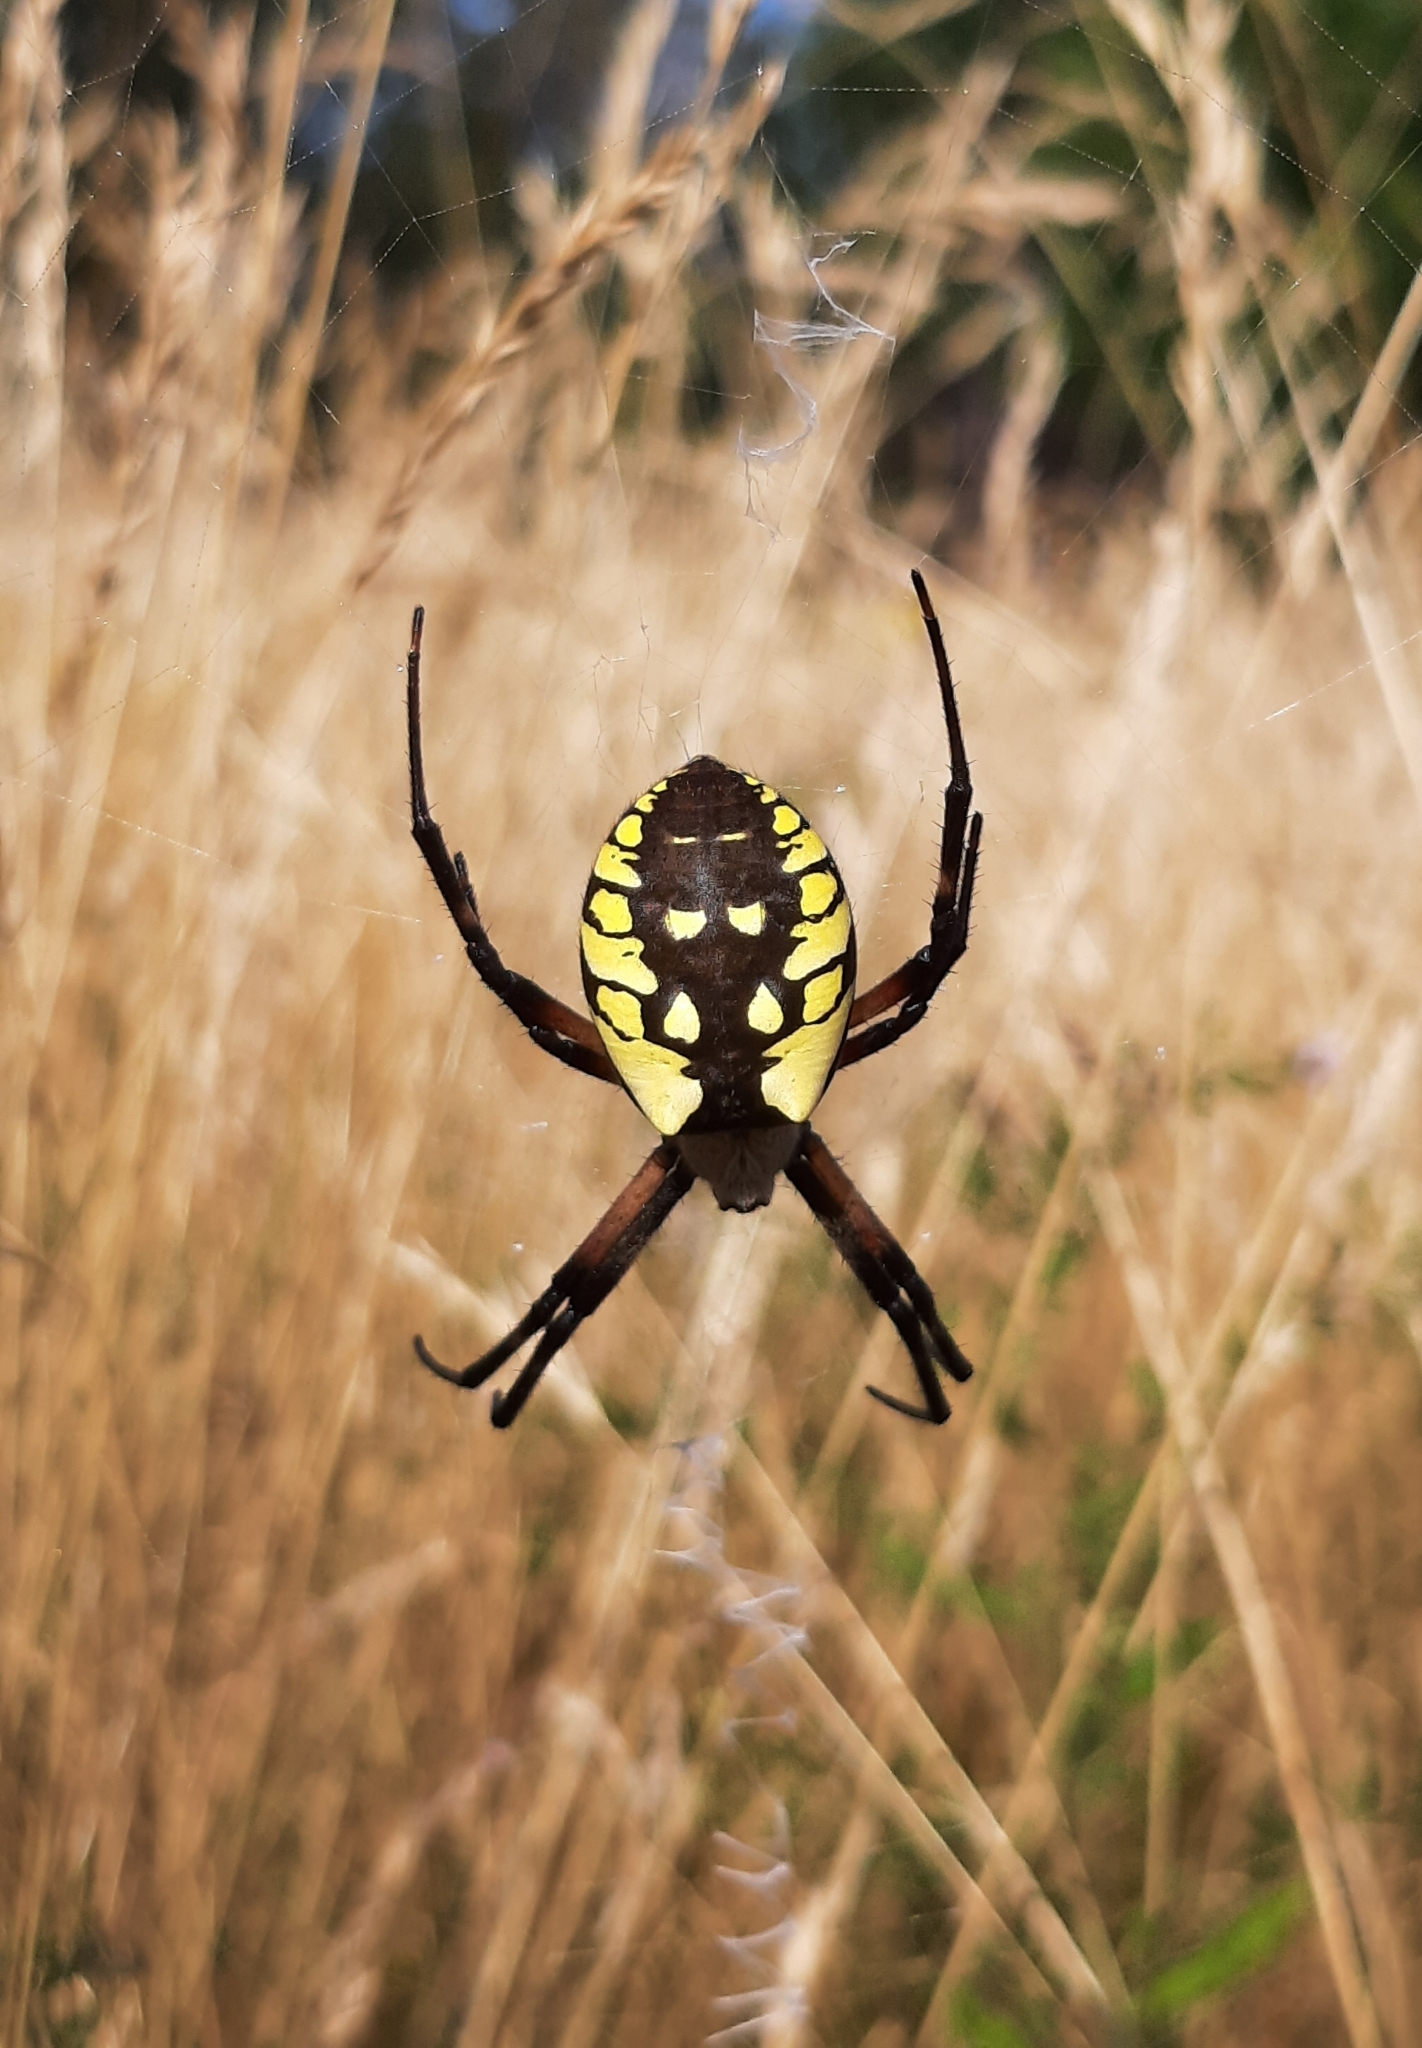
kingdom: Animalia
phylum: Arthropoda
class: Arachnida
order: Araneae
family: Araneidae
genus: Argiope
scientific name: Argiope aurantia
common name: Orb weavers
